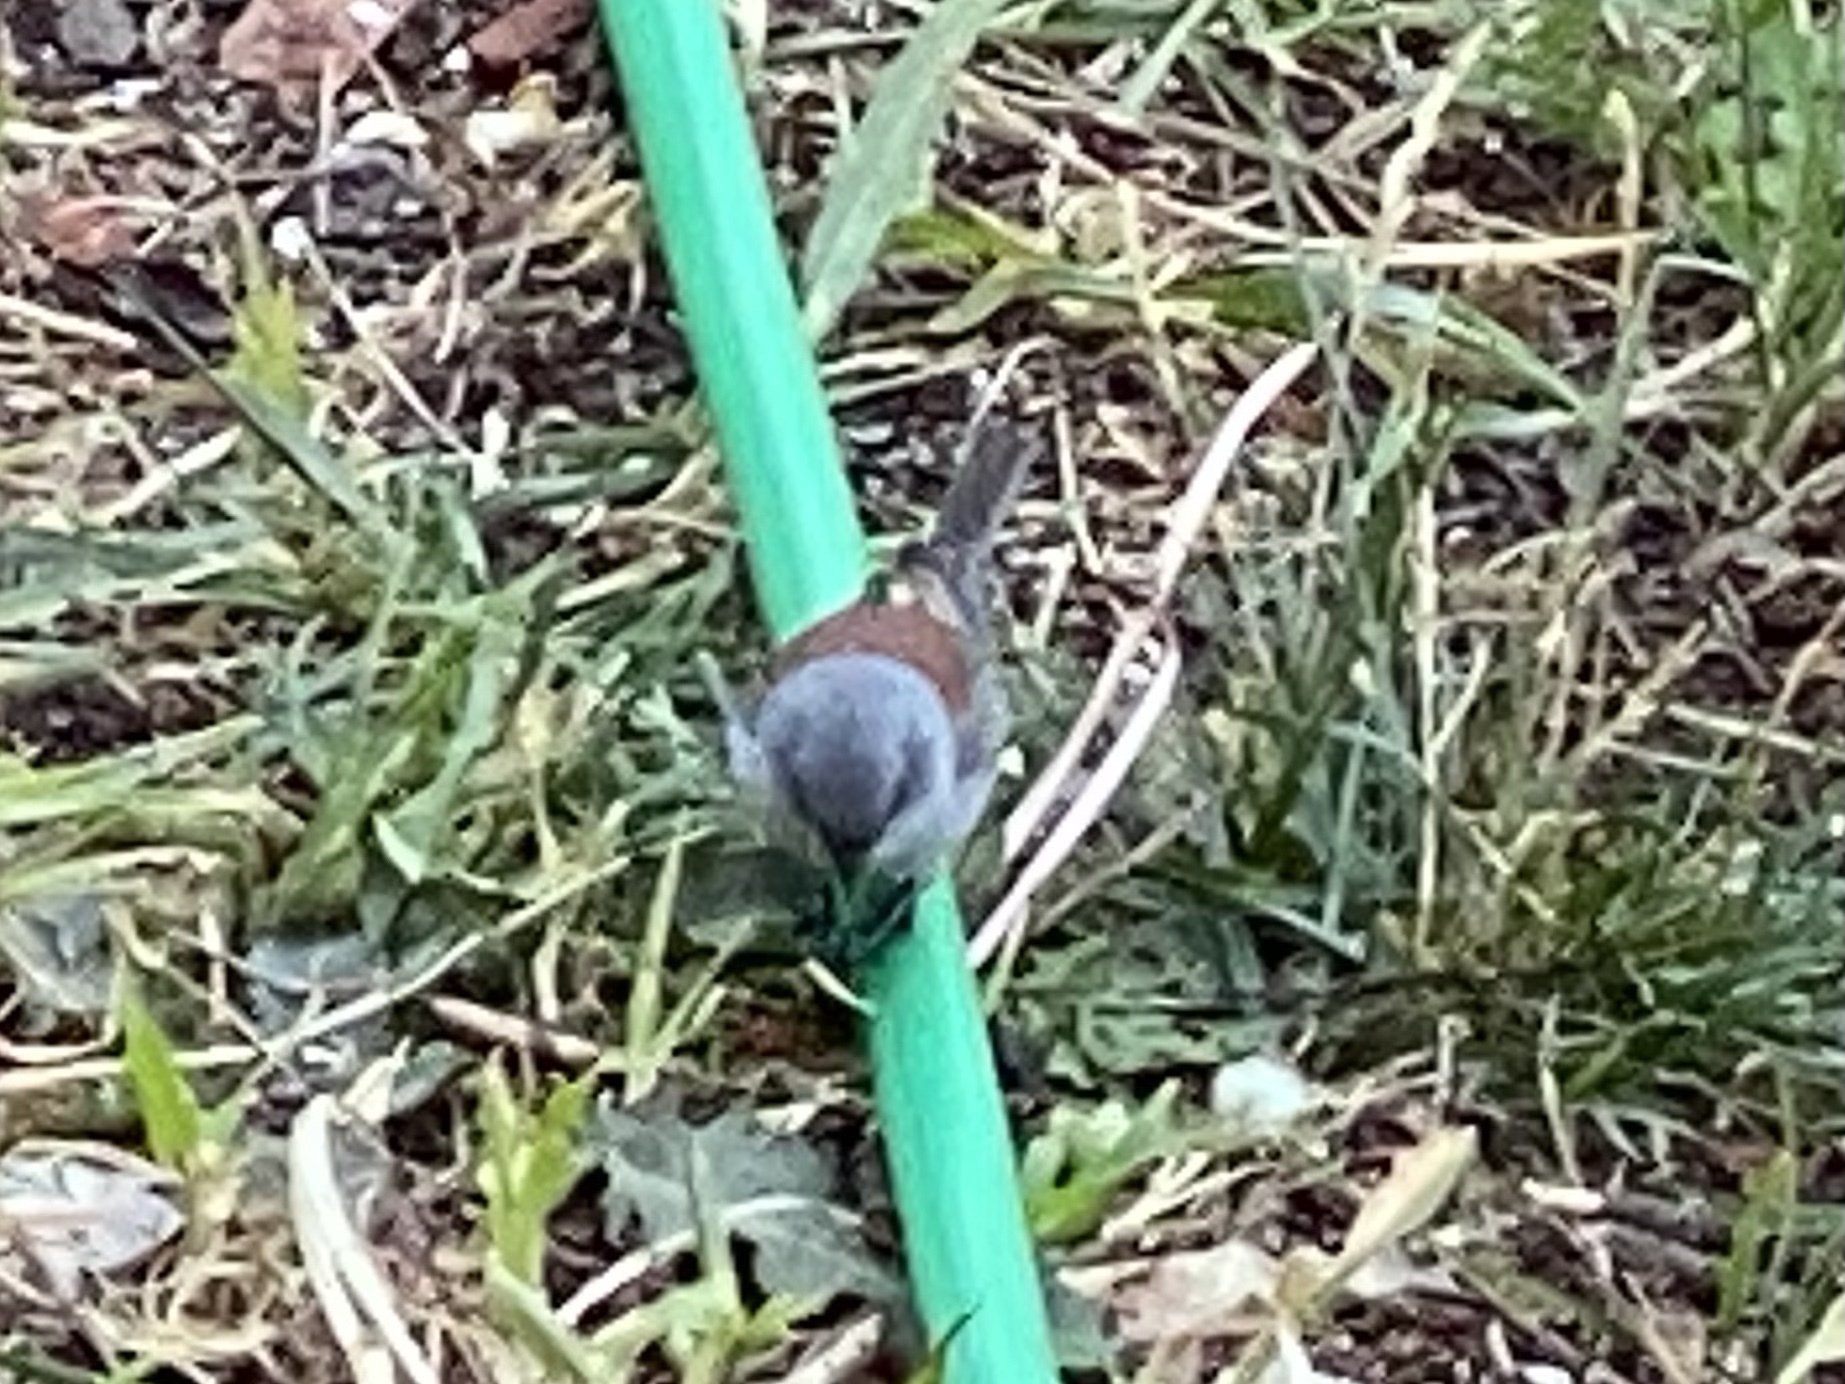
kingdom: Animalia
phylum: Chordata
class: Aves
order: Passeriformes
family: Passerellidae
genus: Junco
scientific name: Junco hyemalis
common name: Dark-eyed junco
